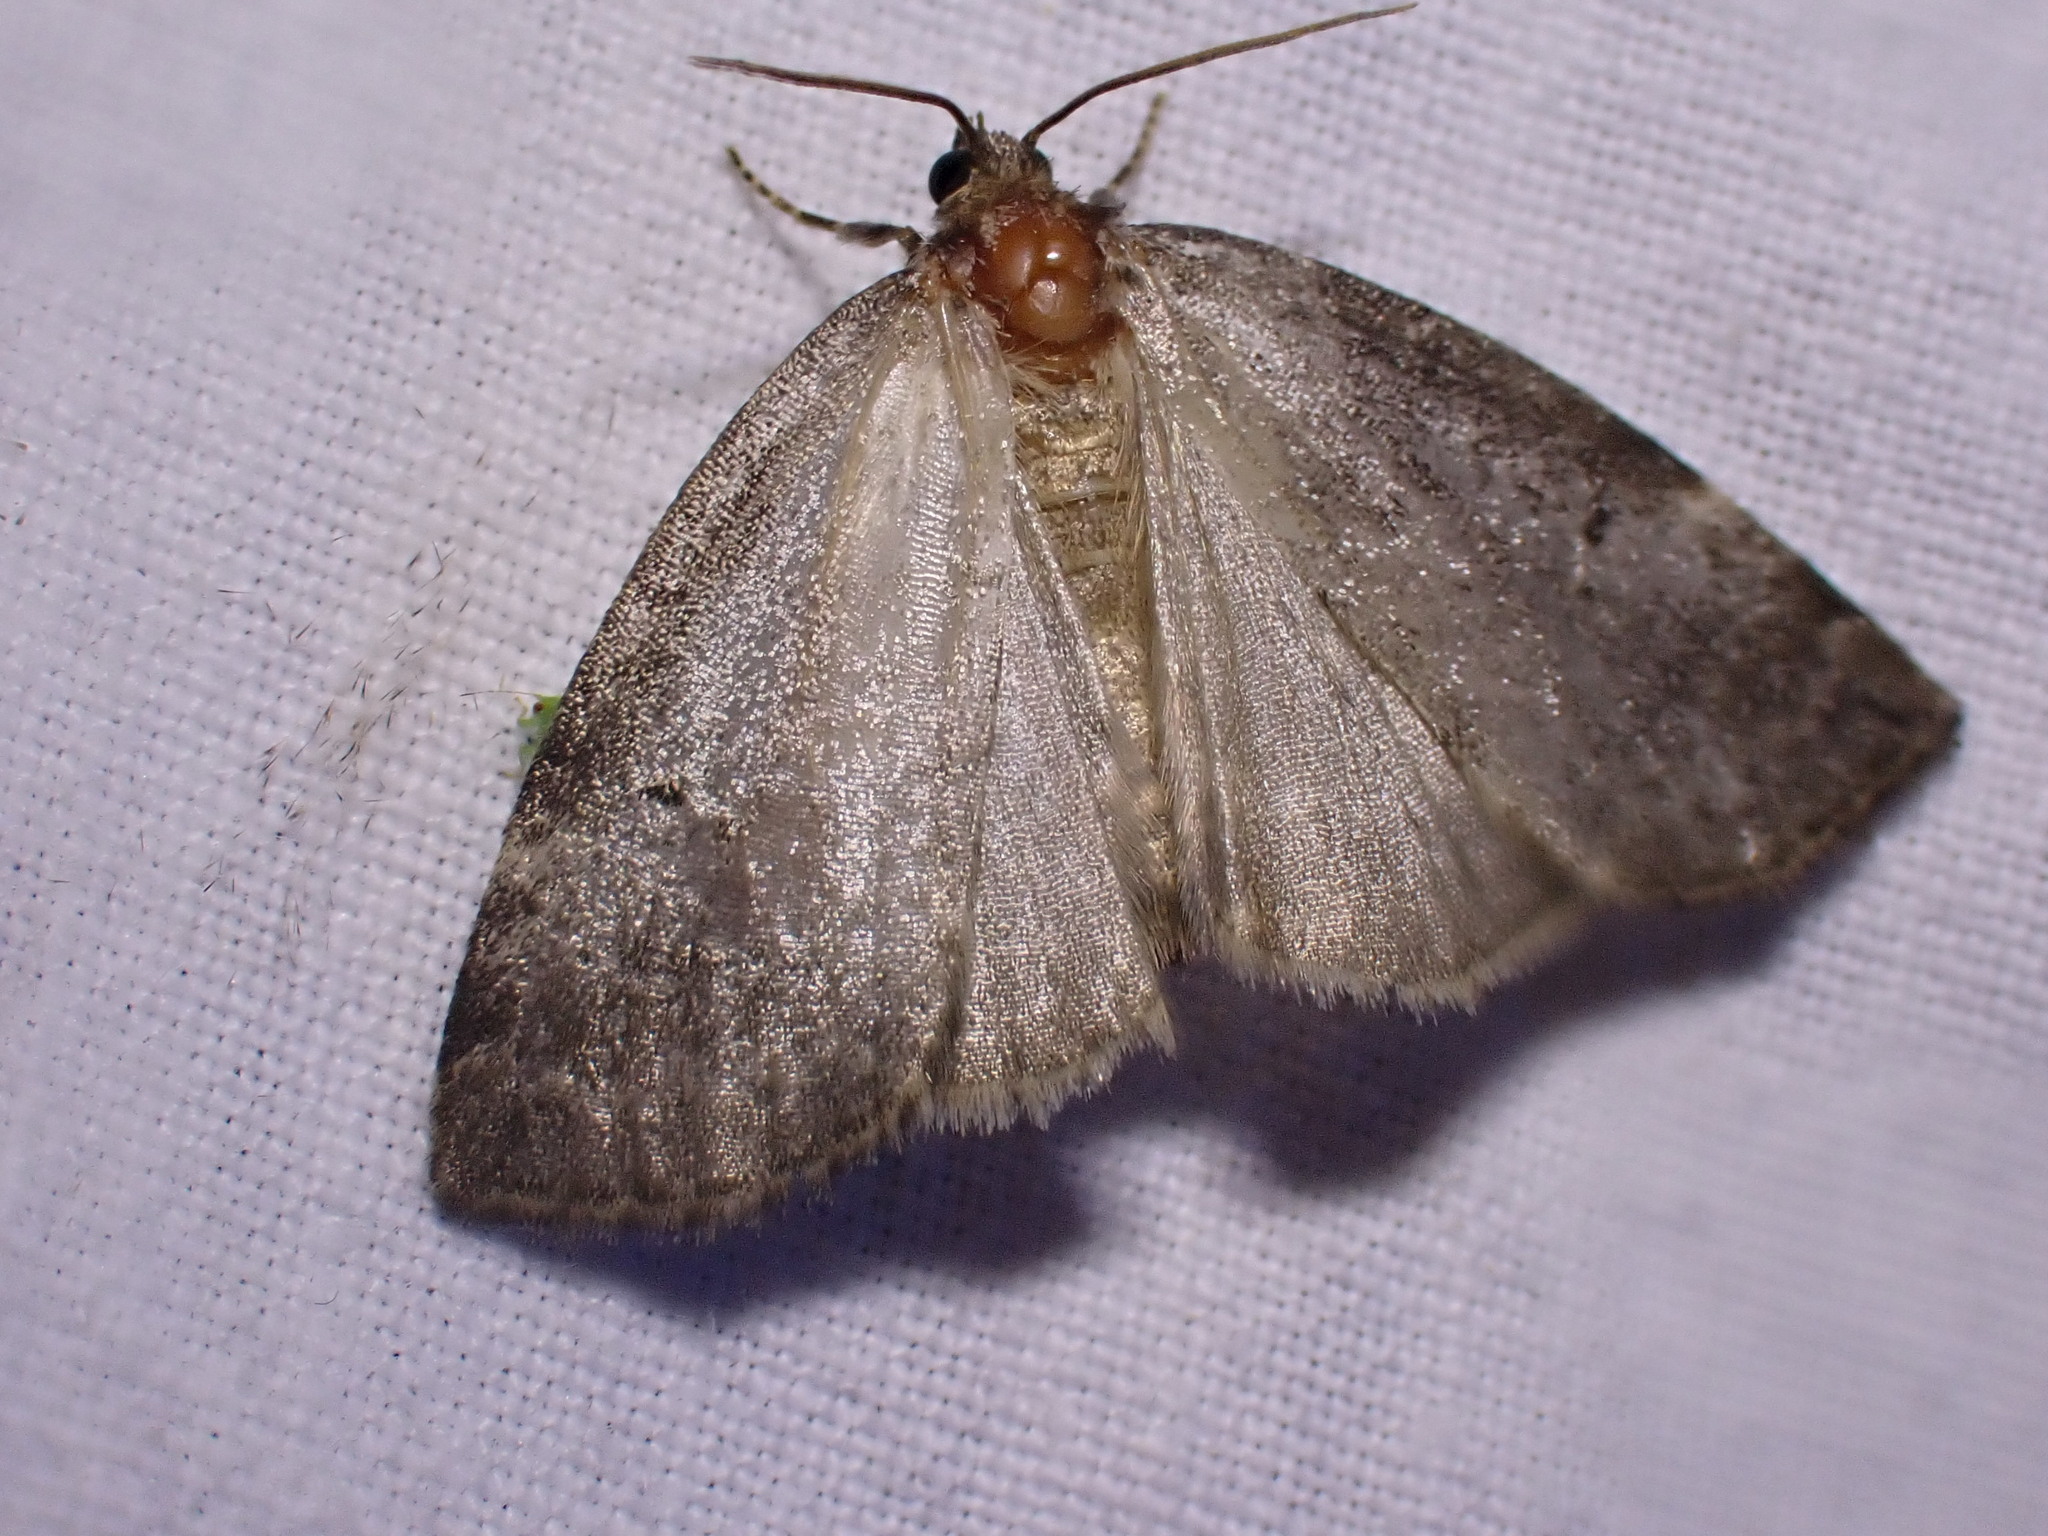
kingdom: Animalia
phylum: Arthropoda
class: Insecta
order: Lepidoptera
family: Drepanidae
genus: Ochropacha
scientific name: Ochropacha duplaris
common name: Common lutestring
